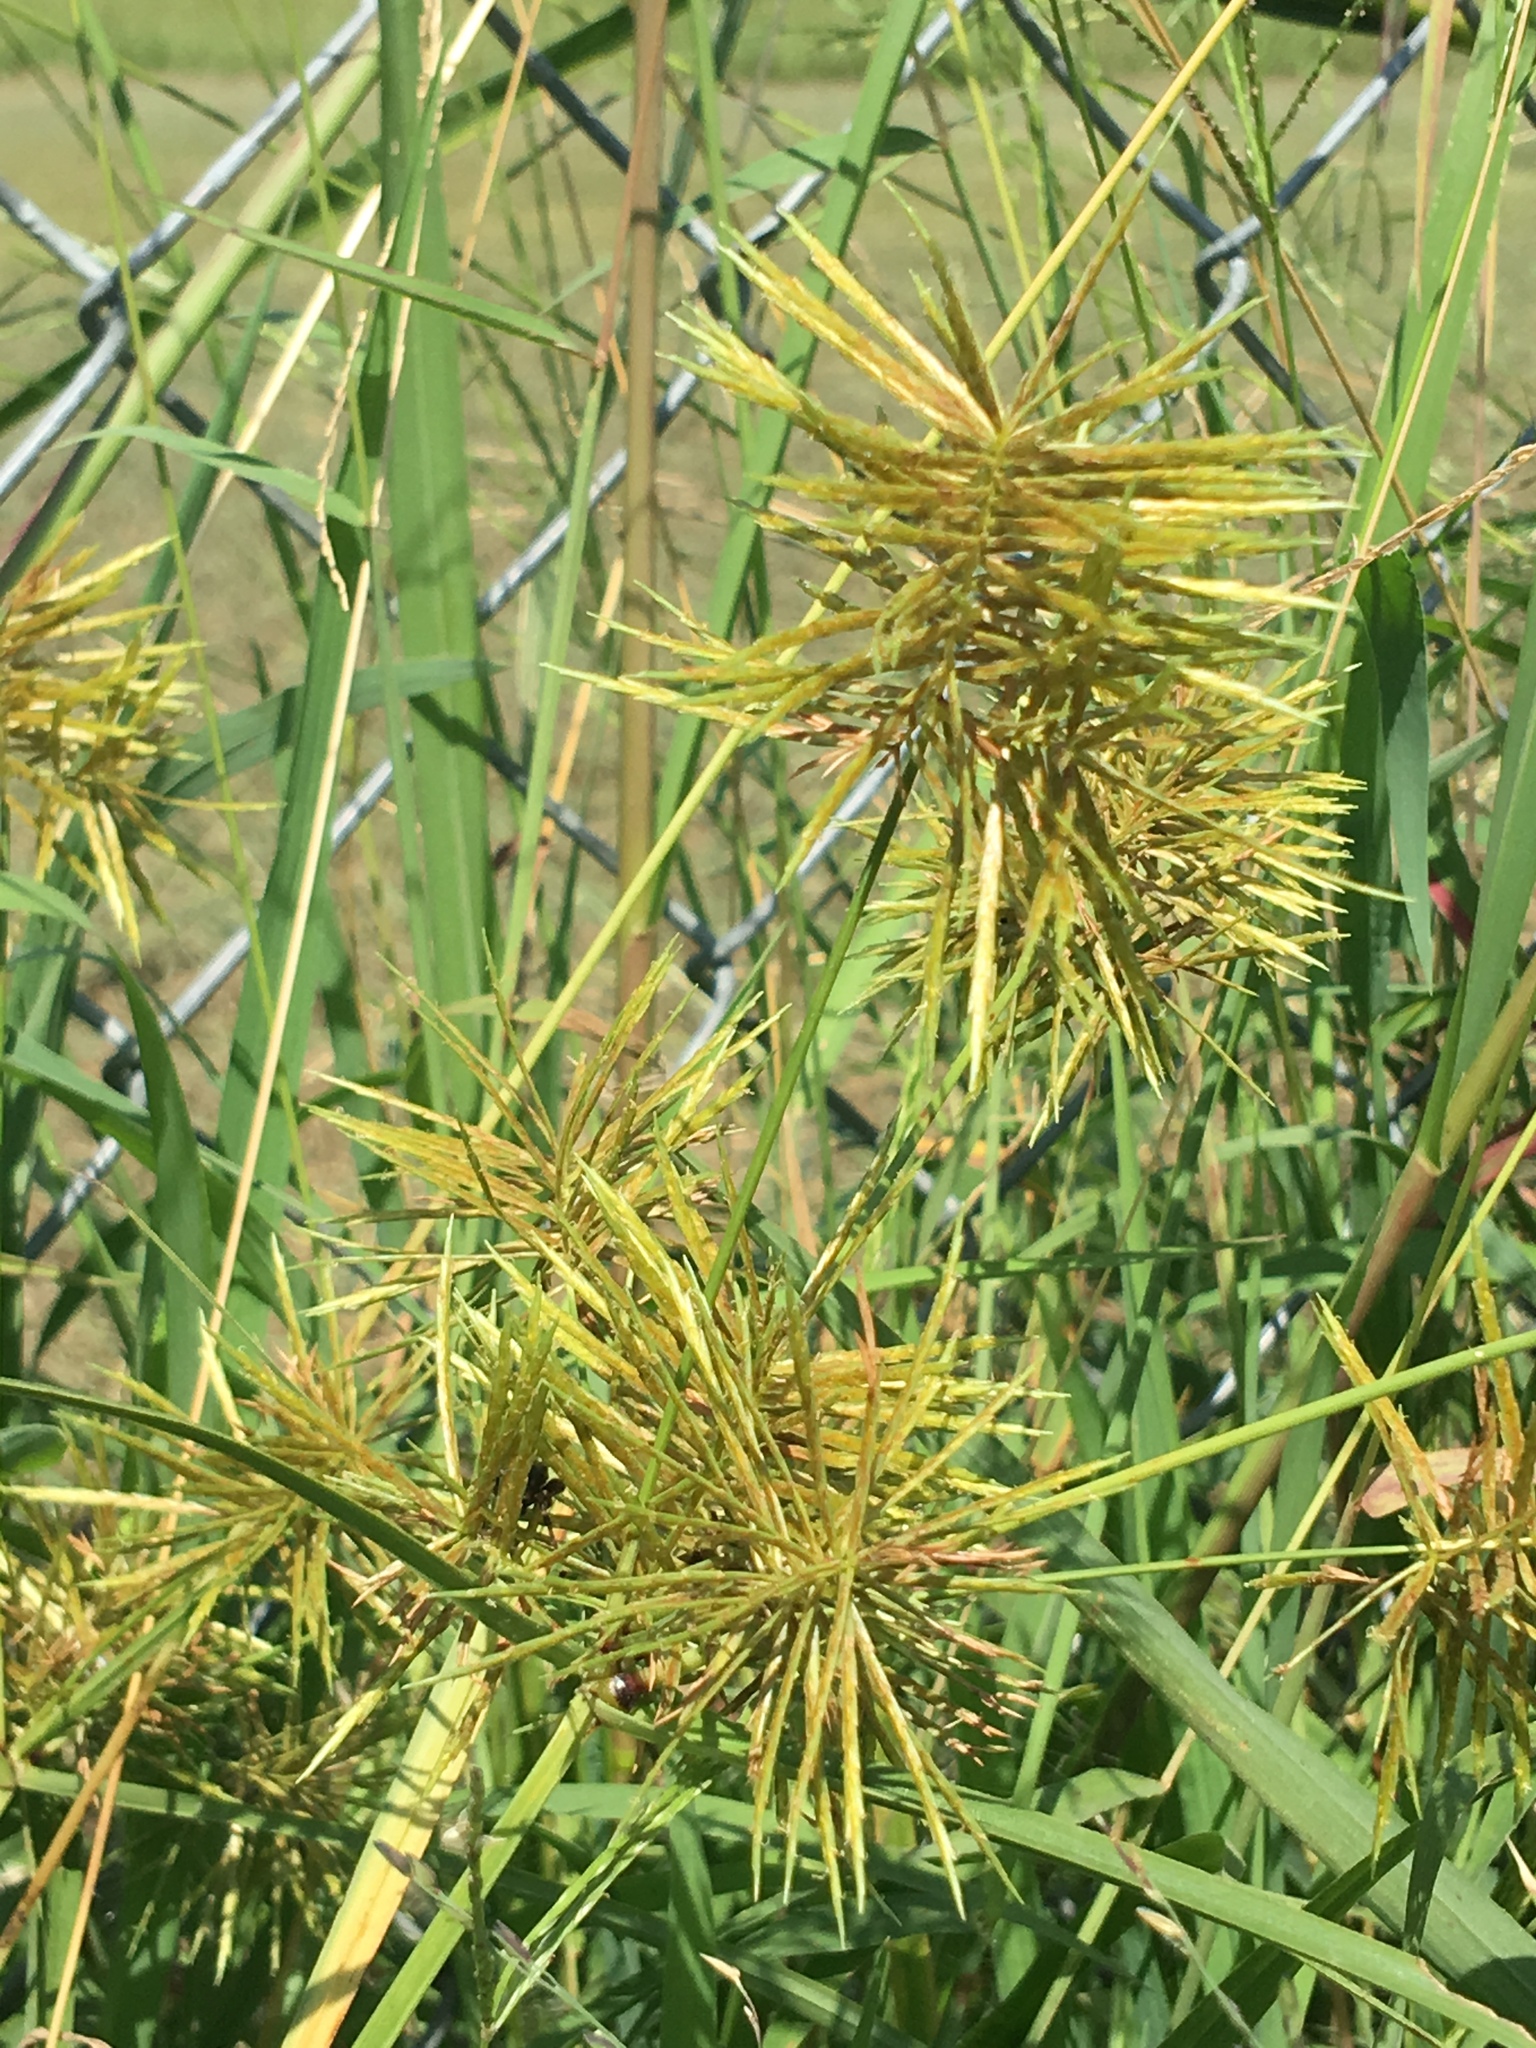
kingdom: Plantae
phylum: Tracheophyta
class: Liliopsida
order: Poales
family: Cyperaceae
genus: Cyperus
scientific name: Cyperus strigosus
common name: False nutsedge
